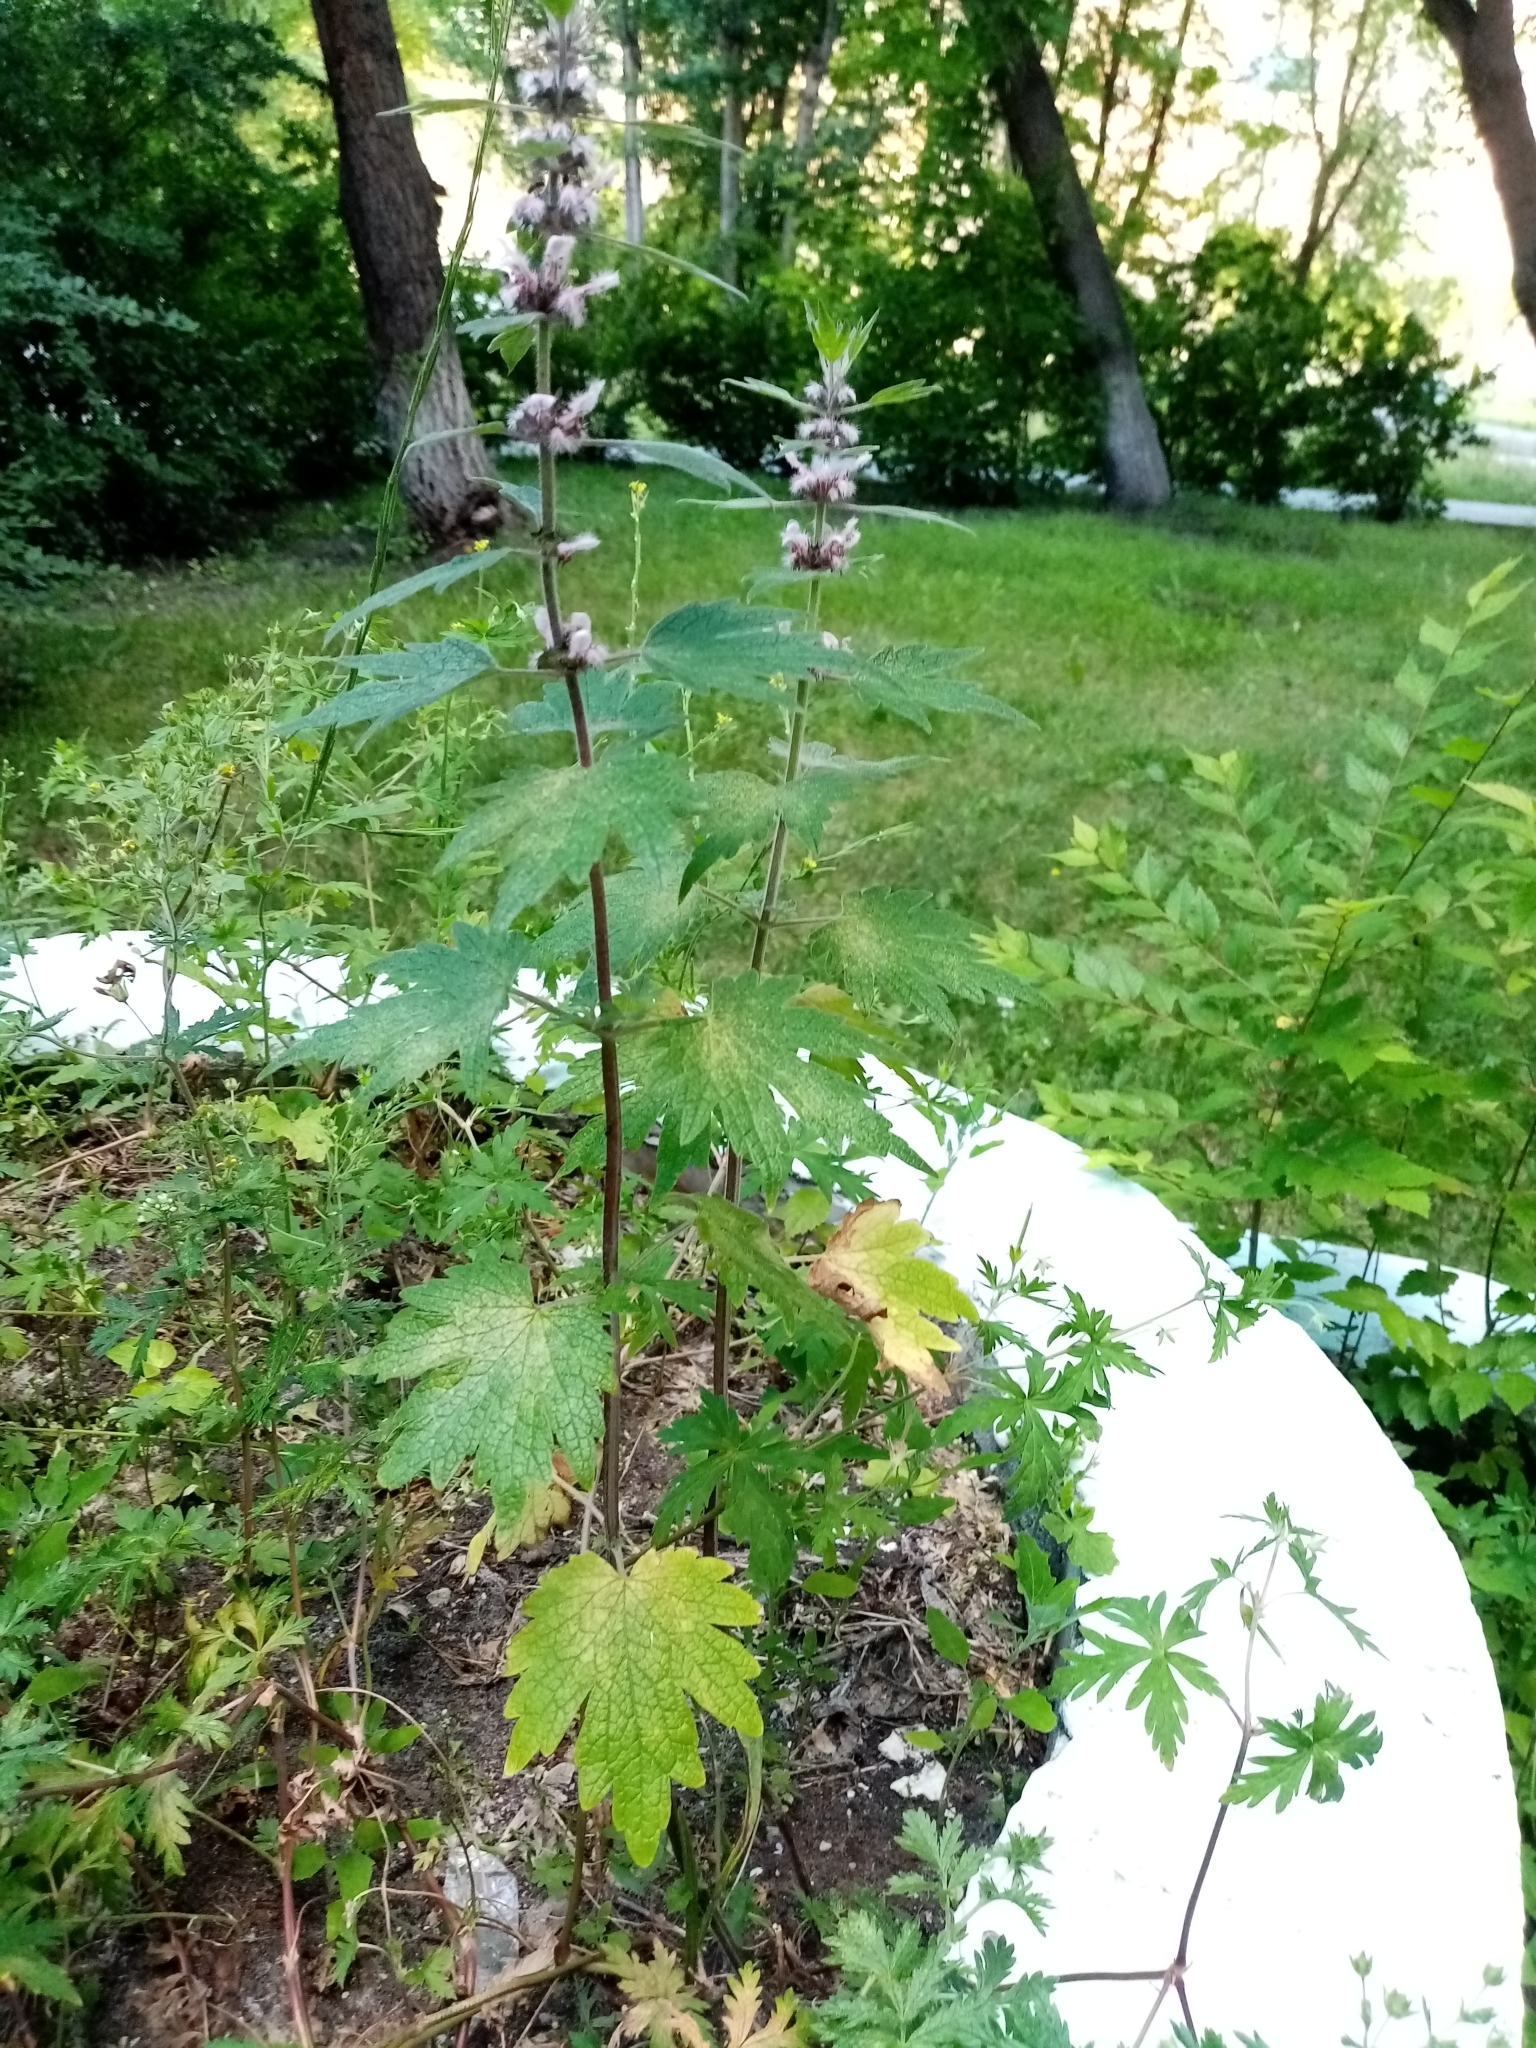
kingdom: Plantae
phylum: Tracheophyta
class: Magnoliopsida
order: Lamiales
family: Lamiaceae
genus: Leonurus
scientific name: Leonurus quinquelobatus
